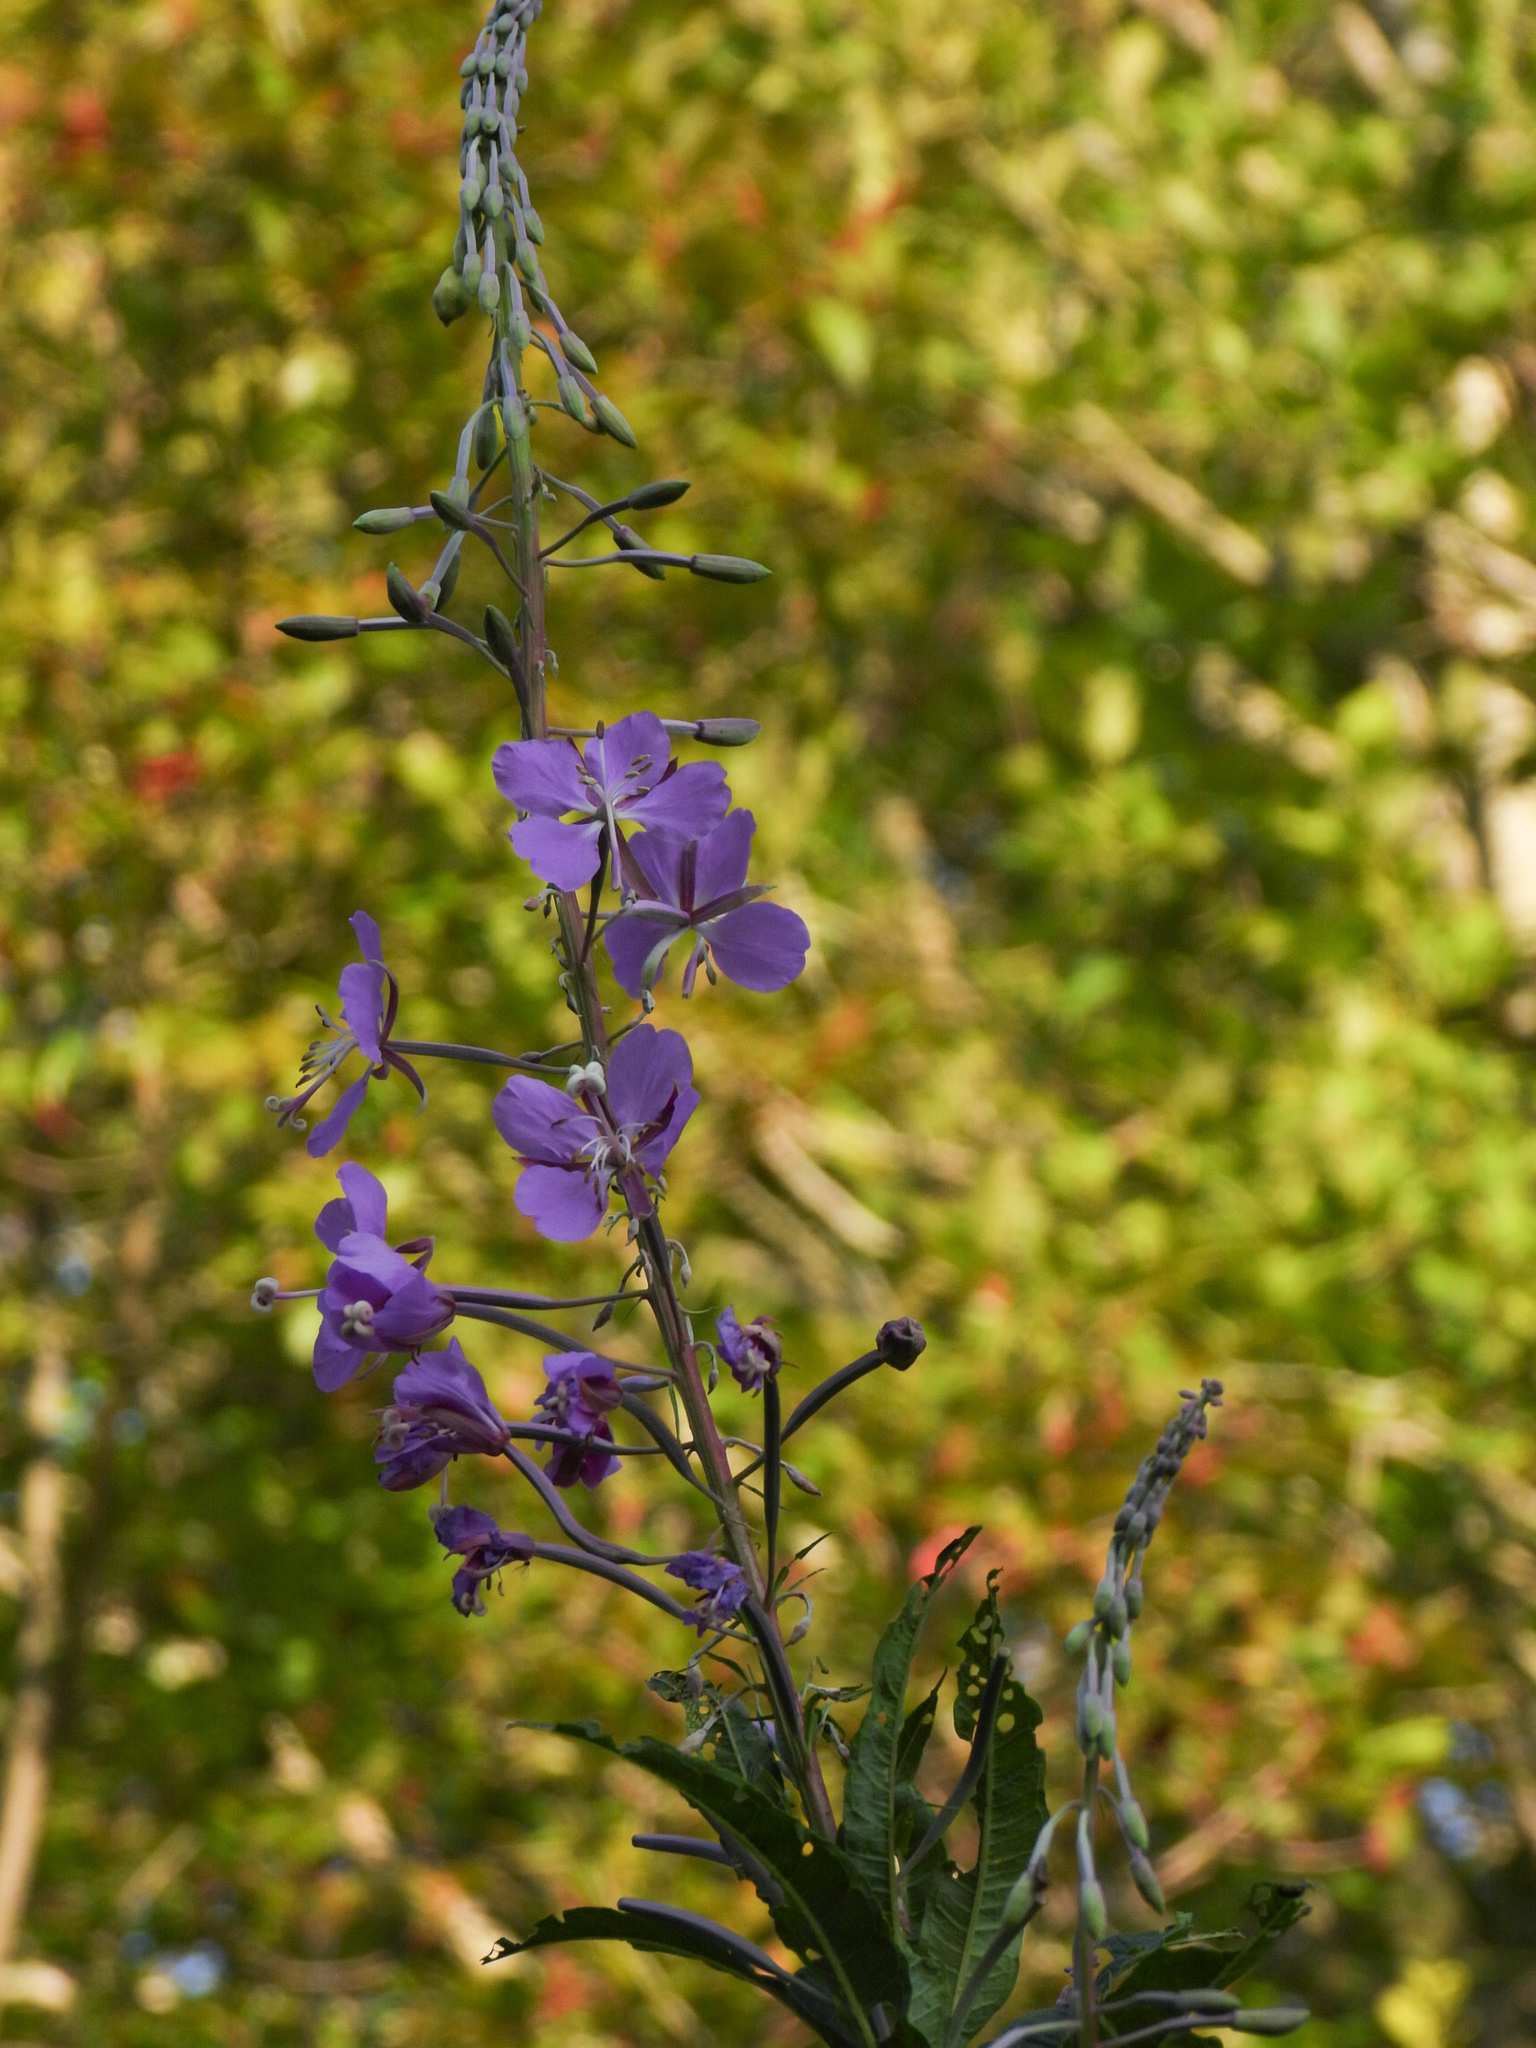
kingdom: Plantae
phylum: Tracheophyta
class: Magnoliopsida
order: Myrtales
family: Onagraceae
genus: Chamaenerion
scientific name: Chamaenerion angustifolium
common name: Fireweed
